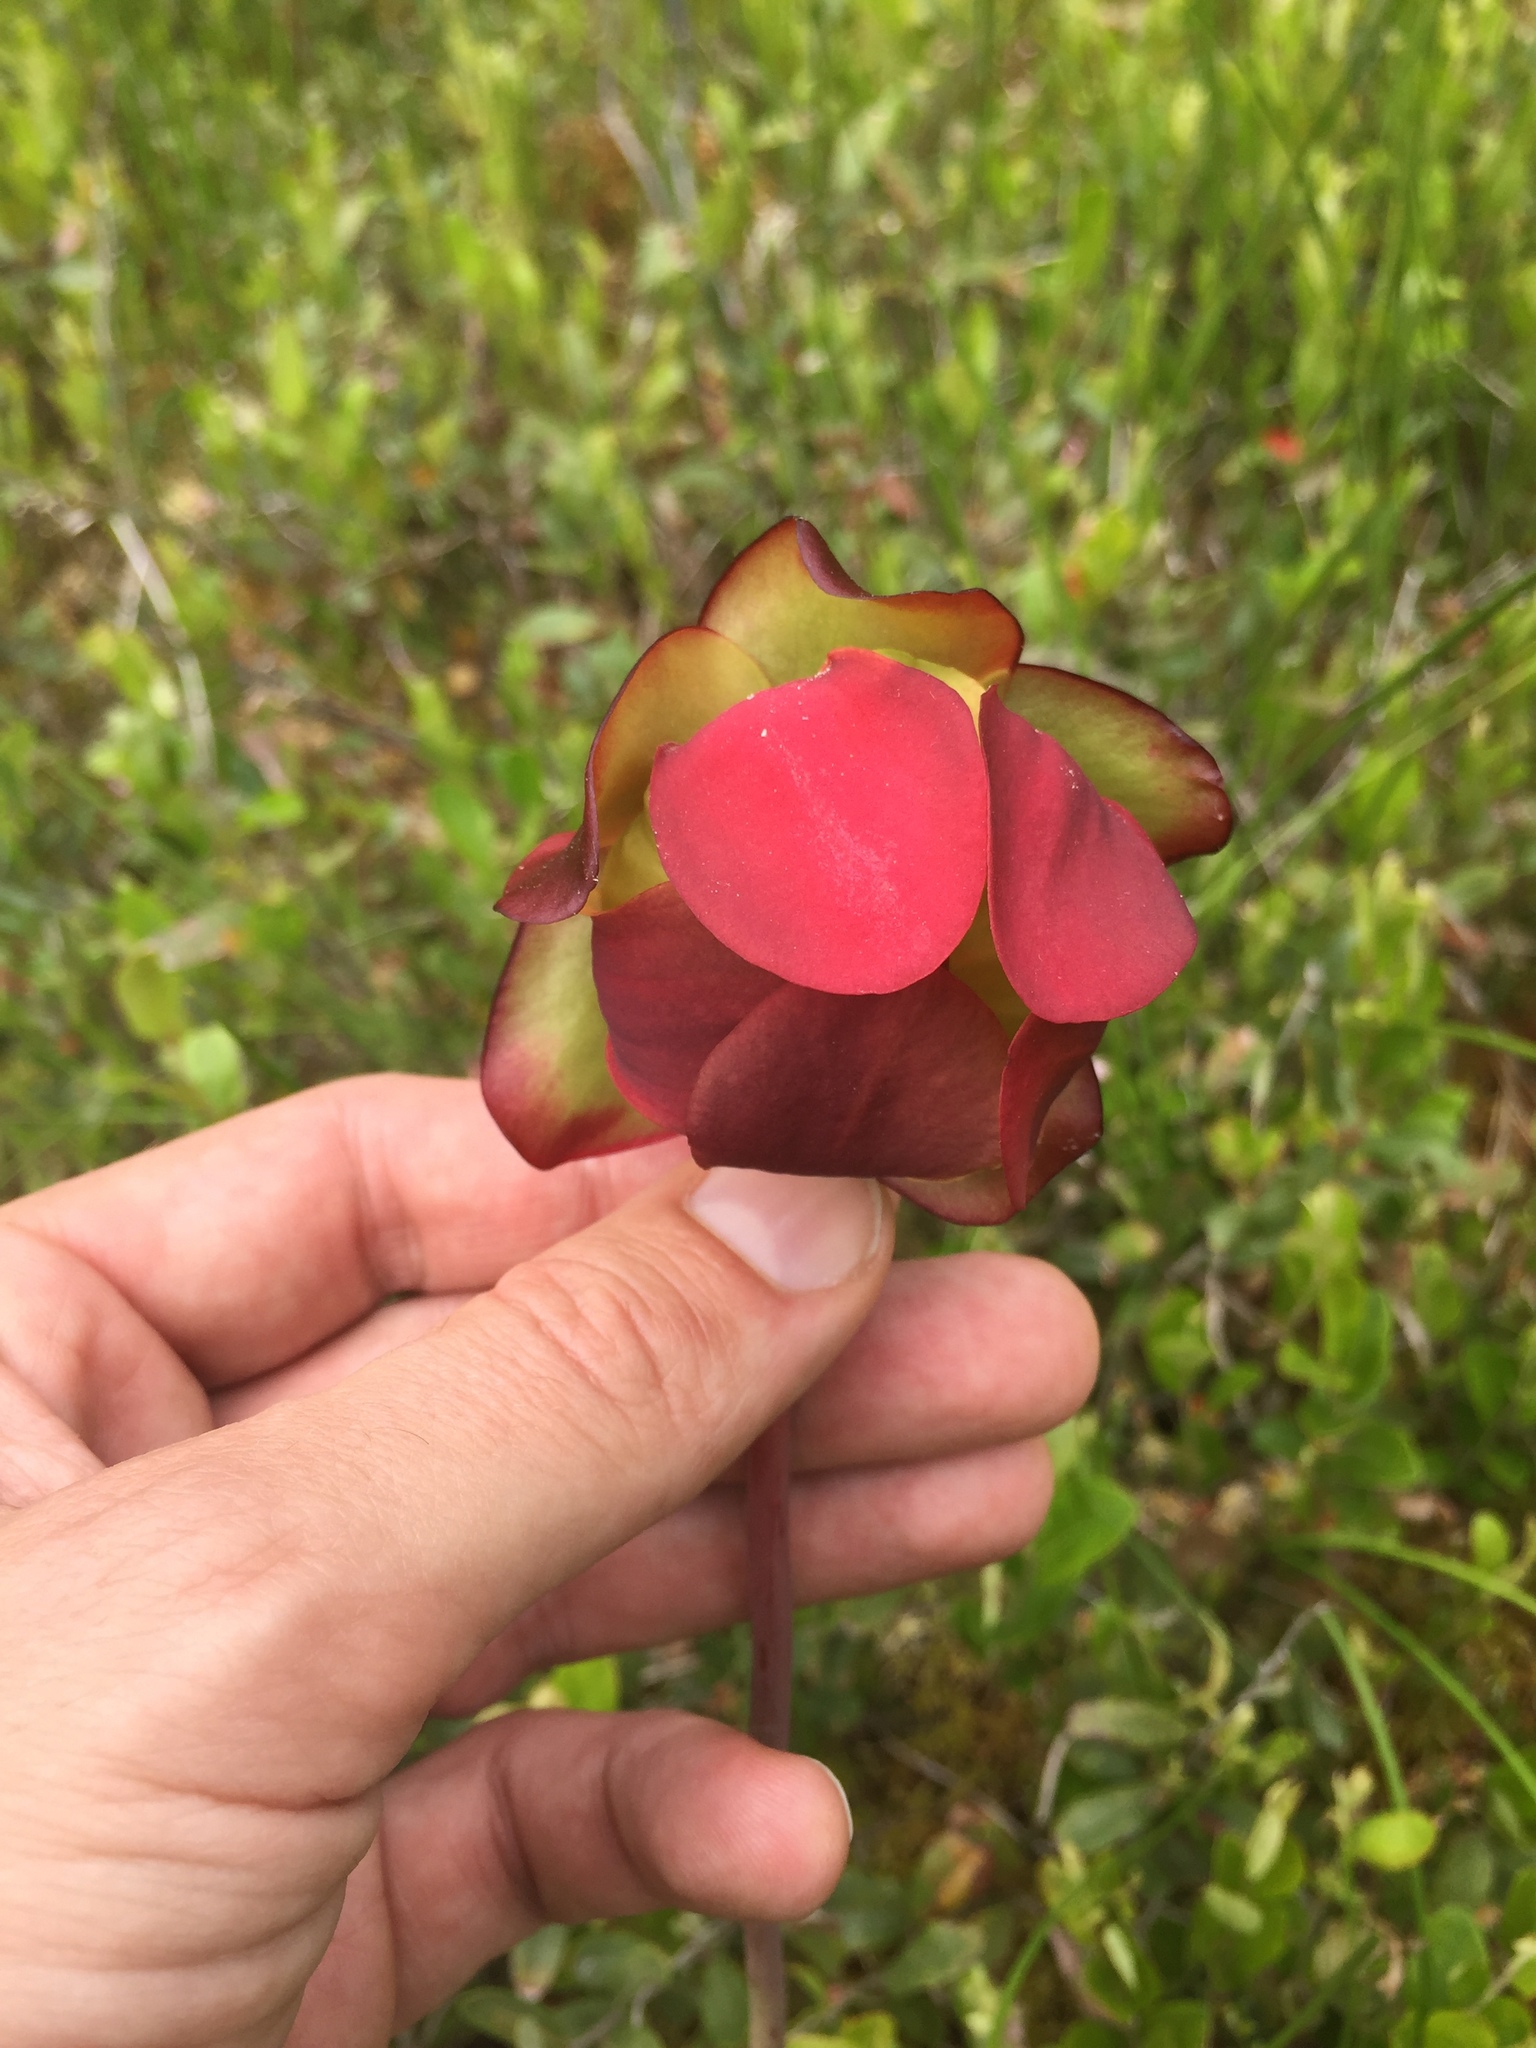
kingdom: Plantae
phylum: Tracheophyta
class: Magnoliopsida
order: Ericales
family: Sarraceniaceae
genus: Sarracenia
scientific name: Sarracenia purpurea
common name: Pitcherplant
